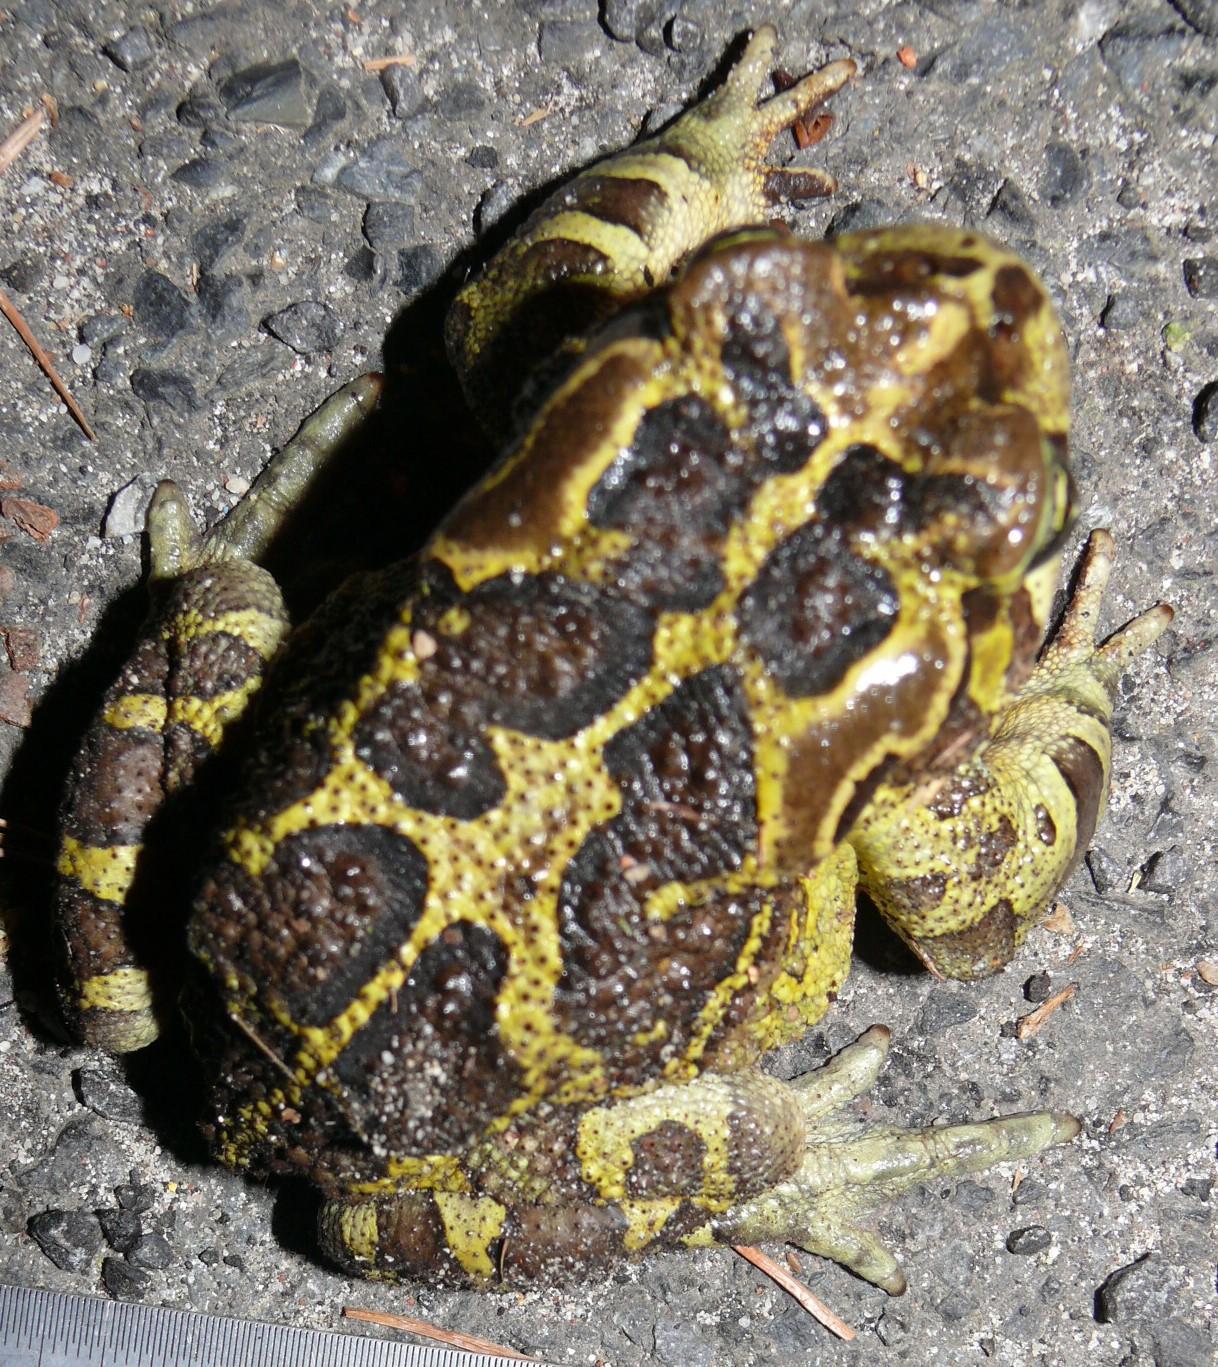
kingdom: Animalia
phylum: Chordata
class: Amphibia
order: Anura
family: Bufonidae
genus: Sclerophrys
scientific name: Sclerophrys pantherina
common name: Panther toad
